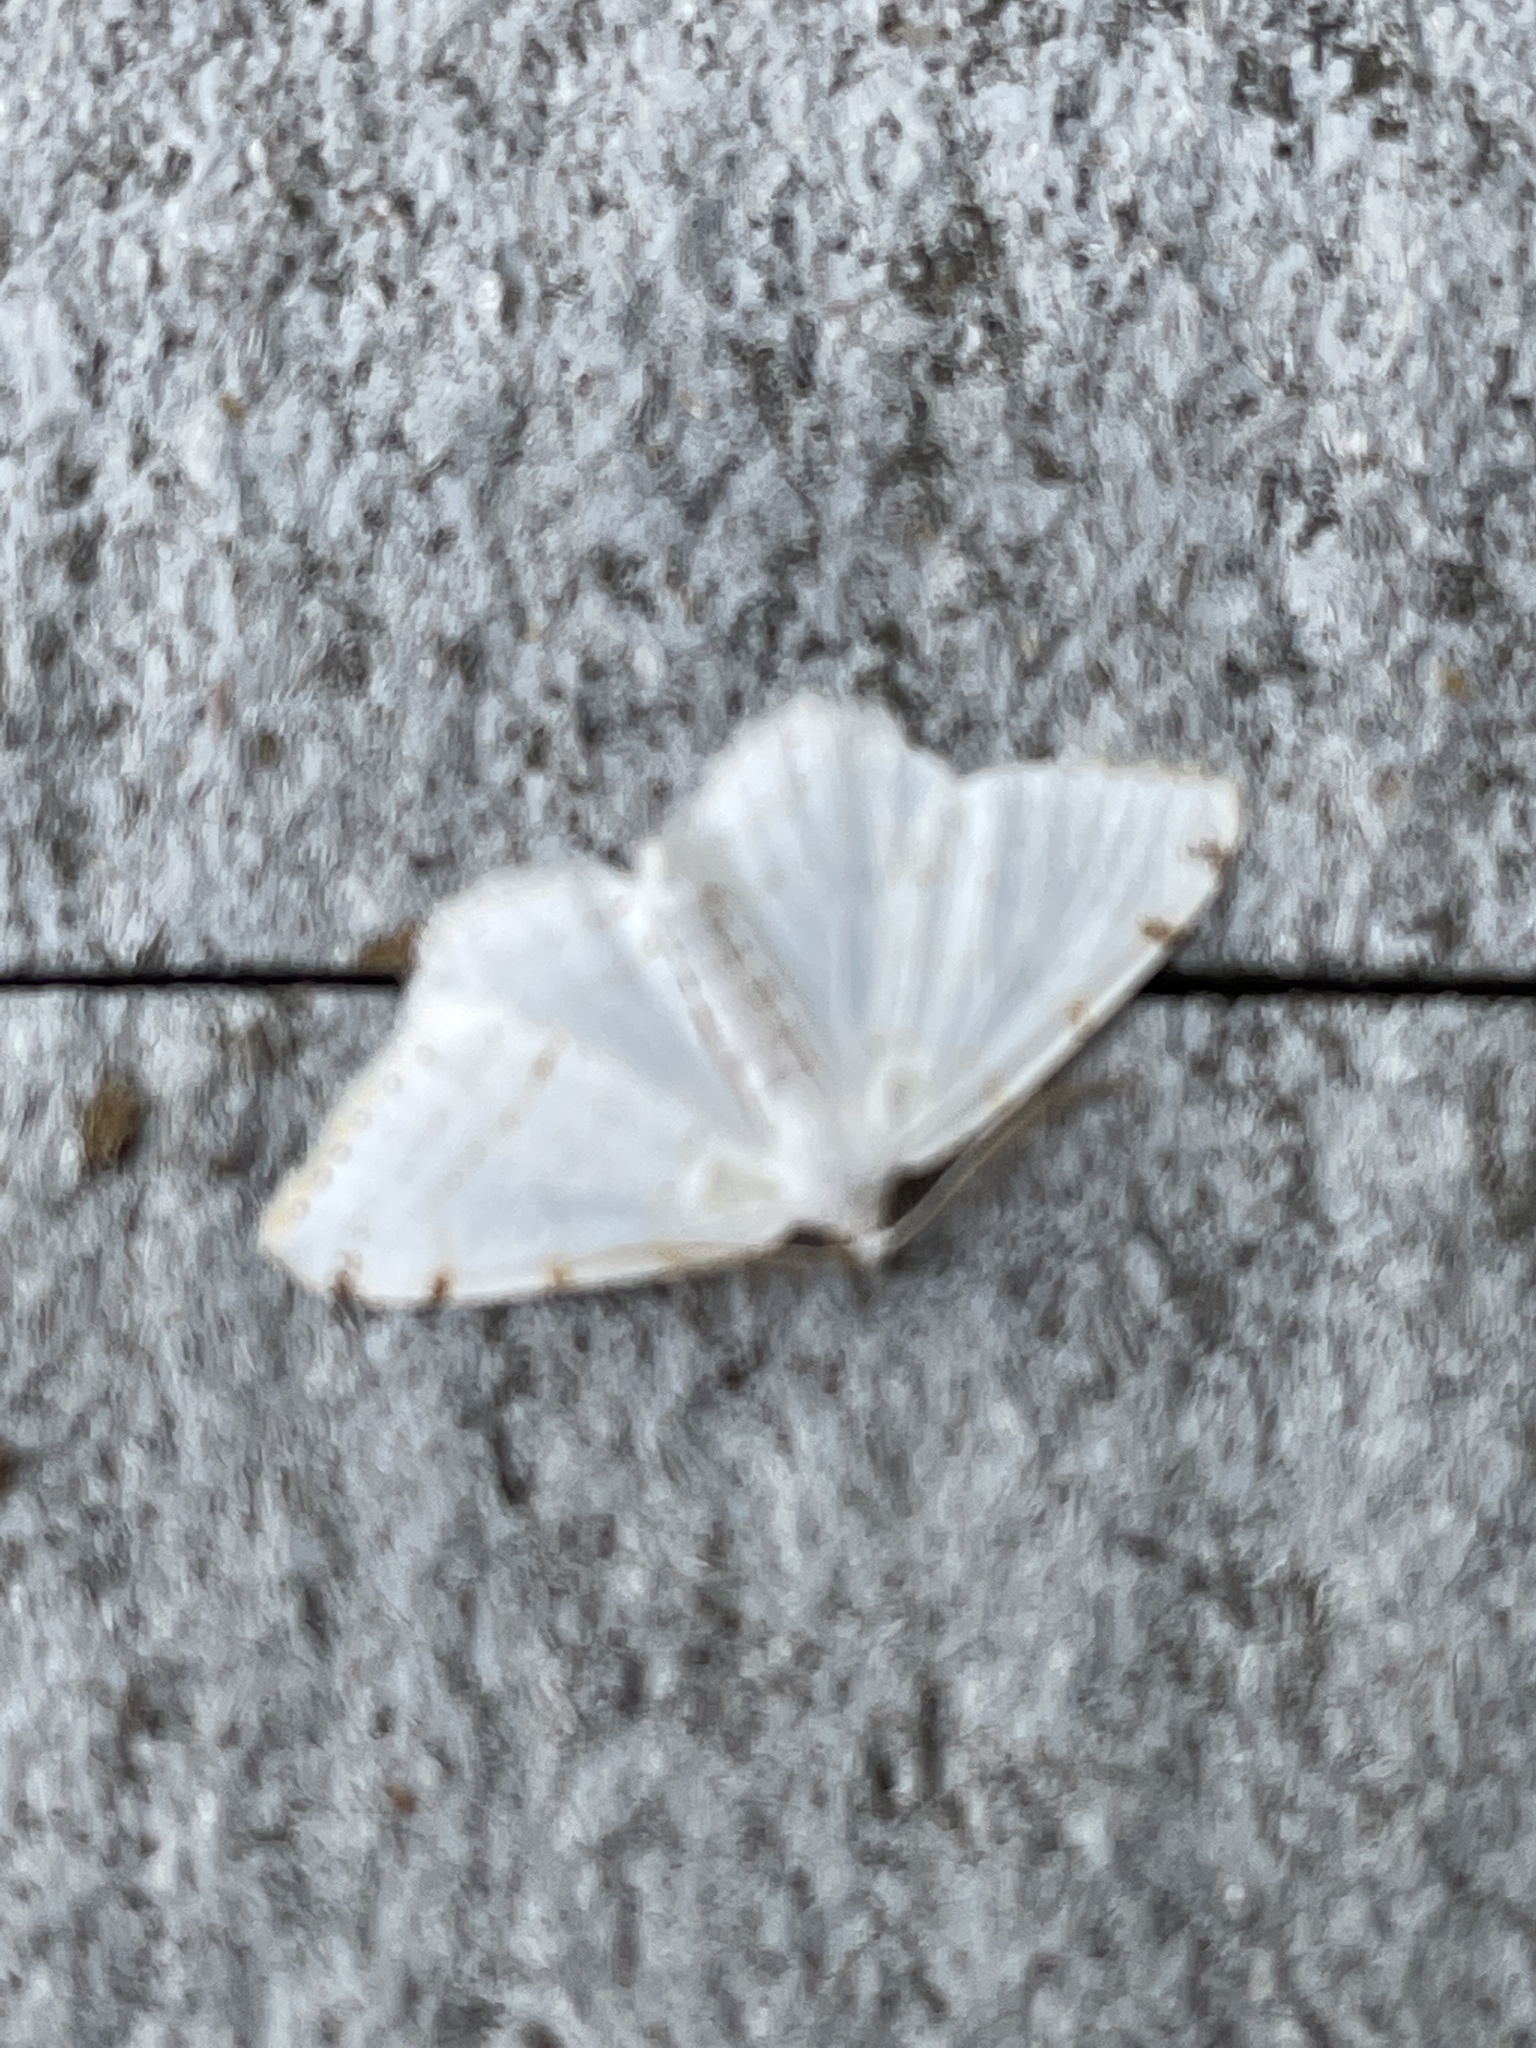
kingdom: Animalia
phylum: Arthropoda
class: Insecta
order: Lepidoptera
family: Geometridae
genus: Macaria
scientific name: Macaria pustularia
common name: Lesser maple spanworm moth
